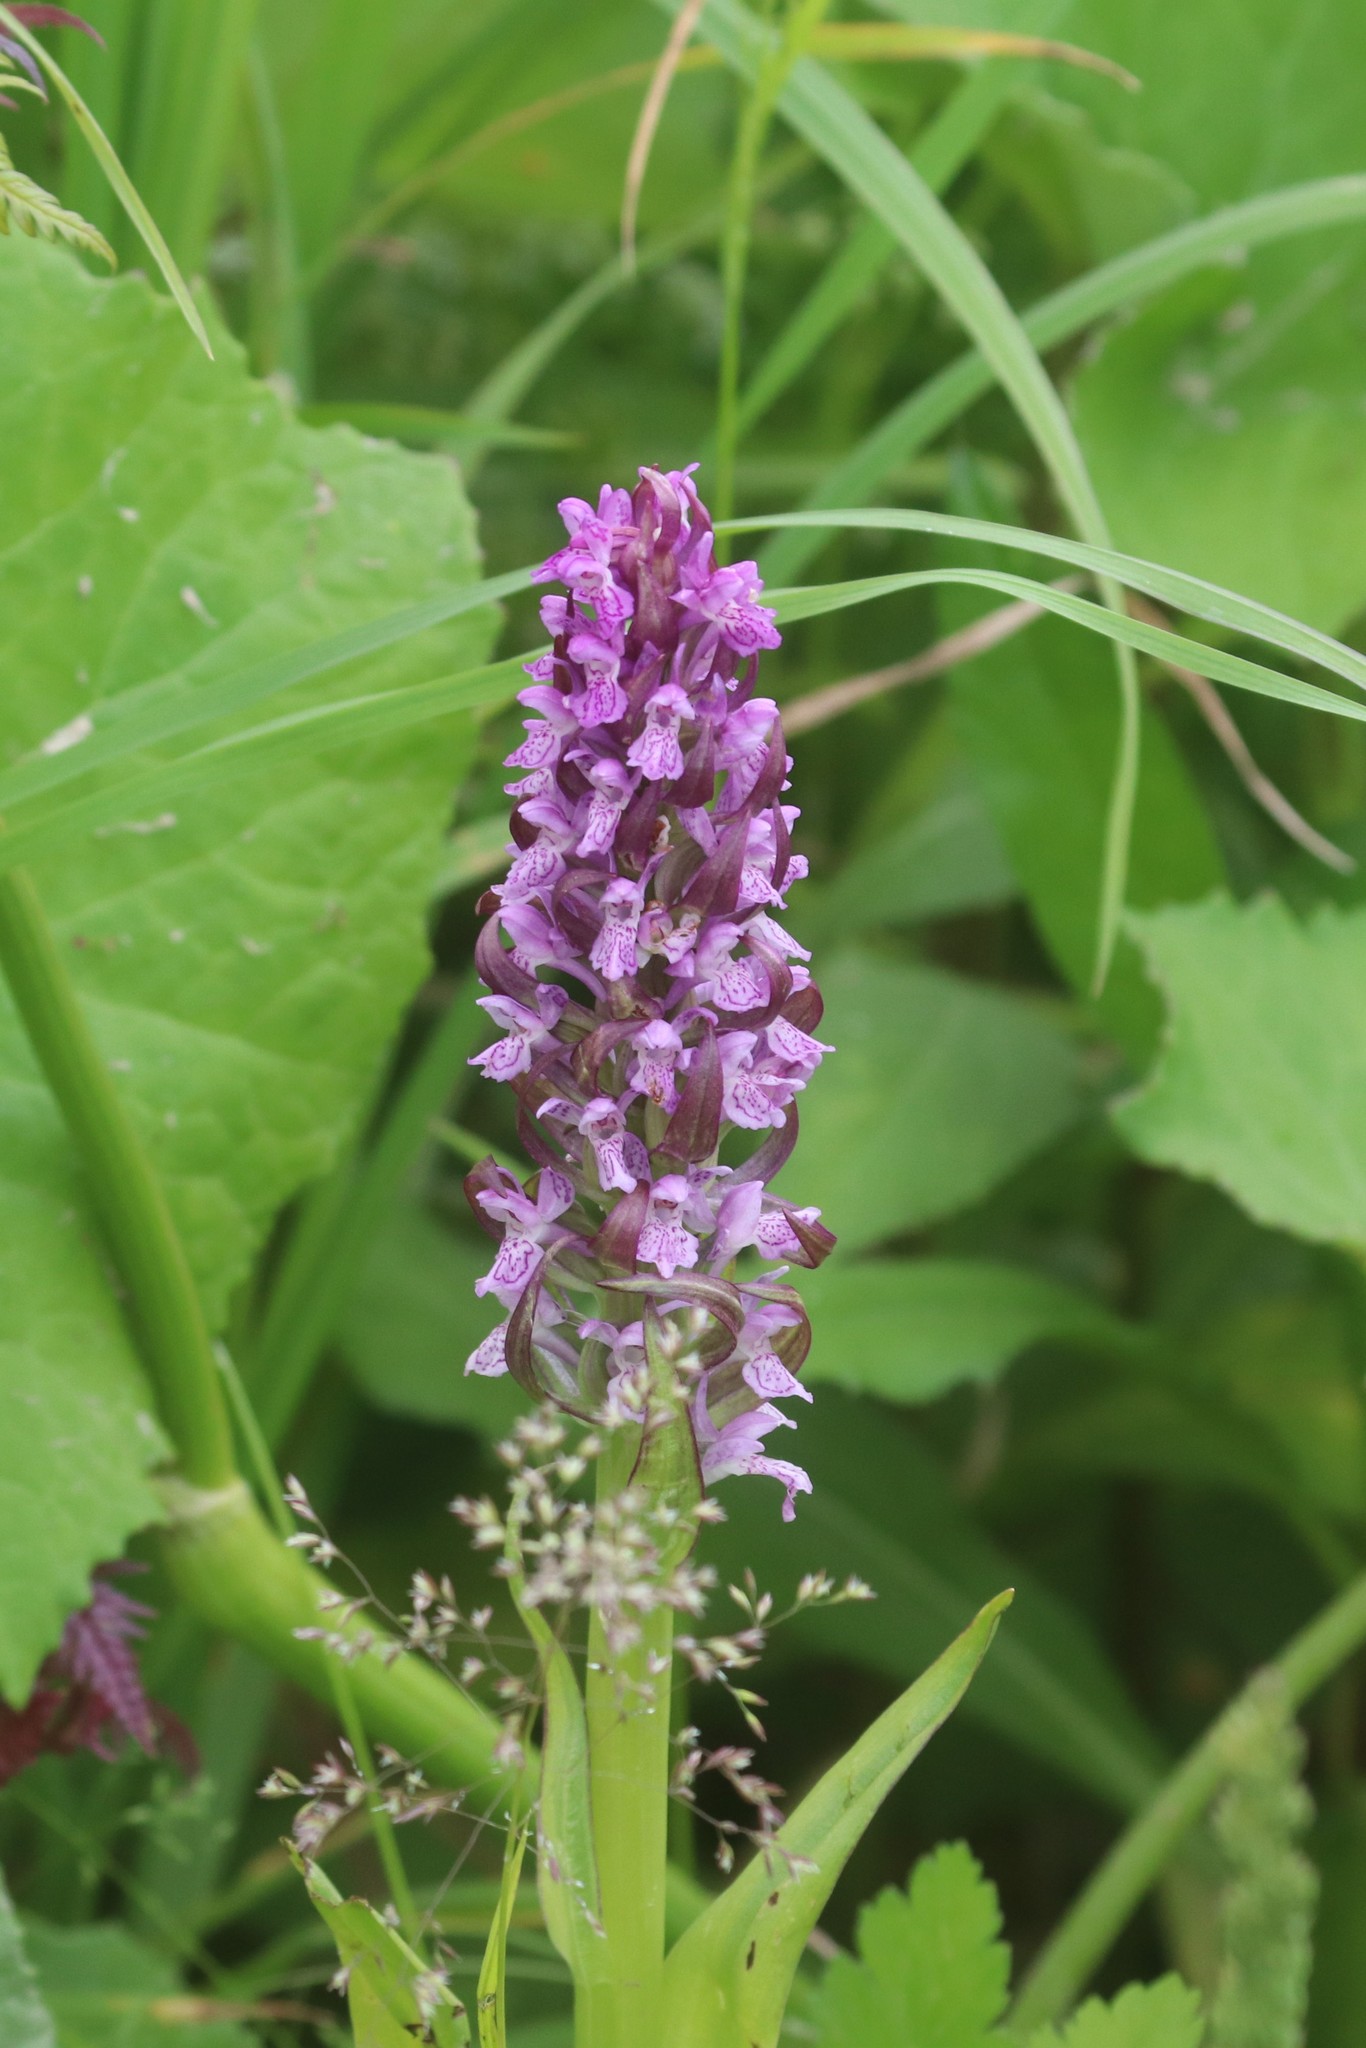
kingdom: Plantae
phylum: Tracheophyta
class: Liliopsida
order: Asparagales
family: Orchidaceae
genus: Dactylorhiza
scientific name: Dactylorhiza incarnata
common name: Early marsh-orchid
